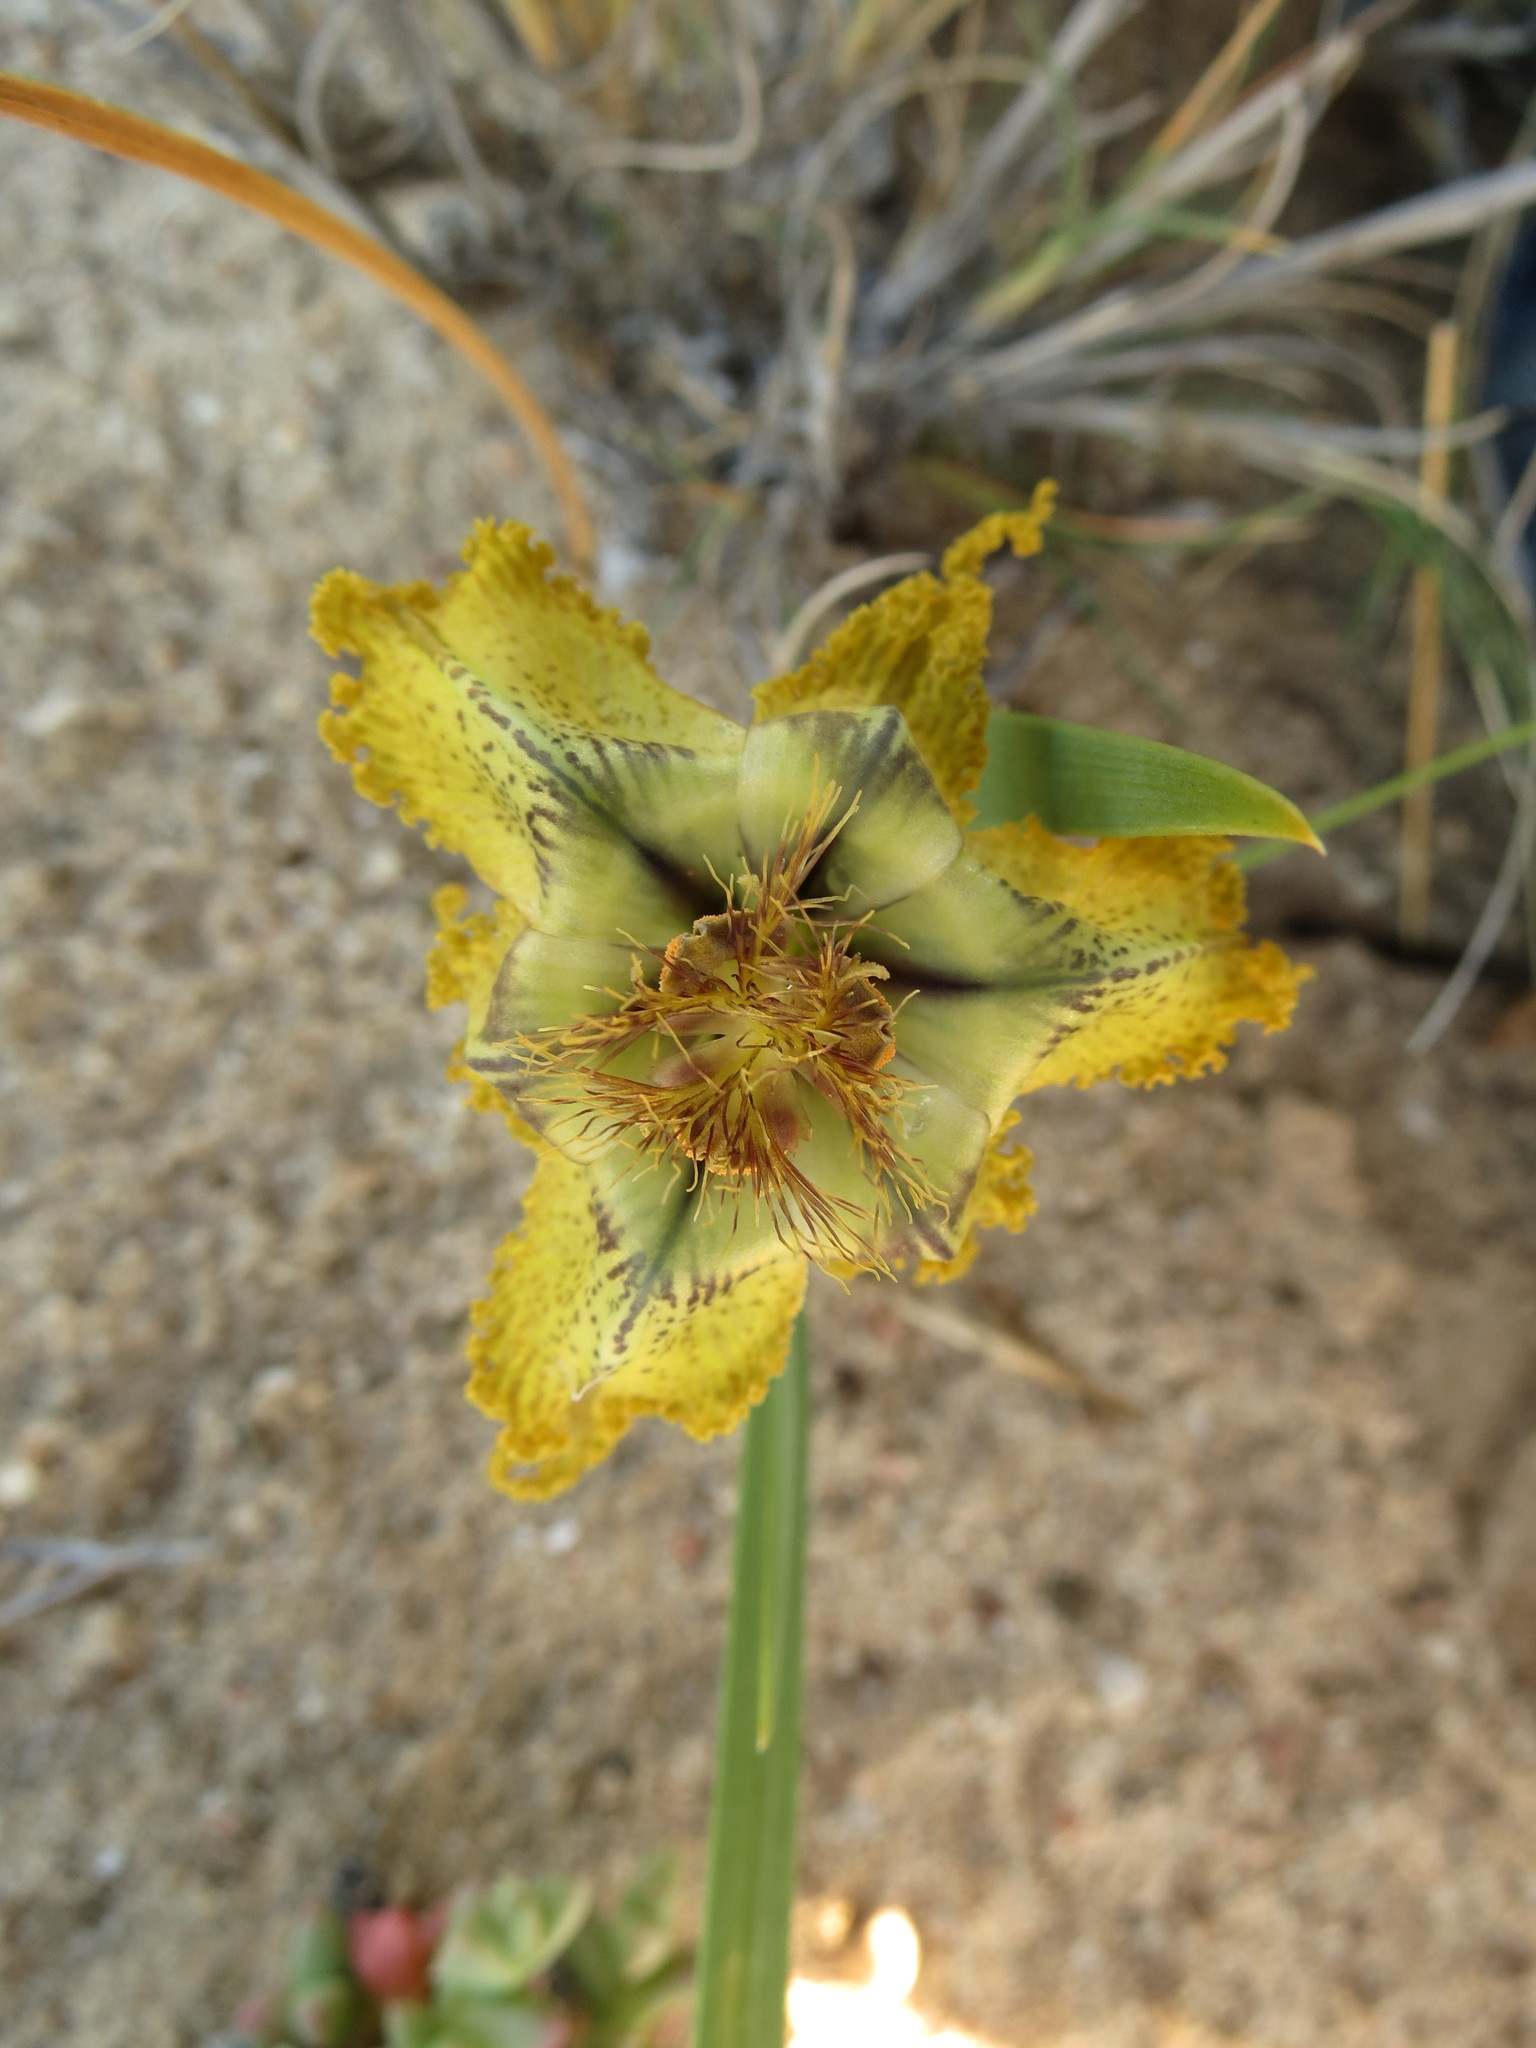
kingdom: Plantae
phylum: Tracheophyta
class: Liliopsida
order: Asparagales
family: Iridaceae
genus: Ferraria
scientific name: Ferraria variabilis
